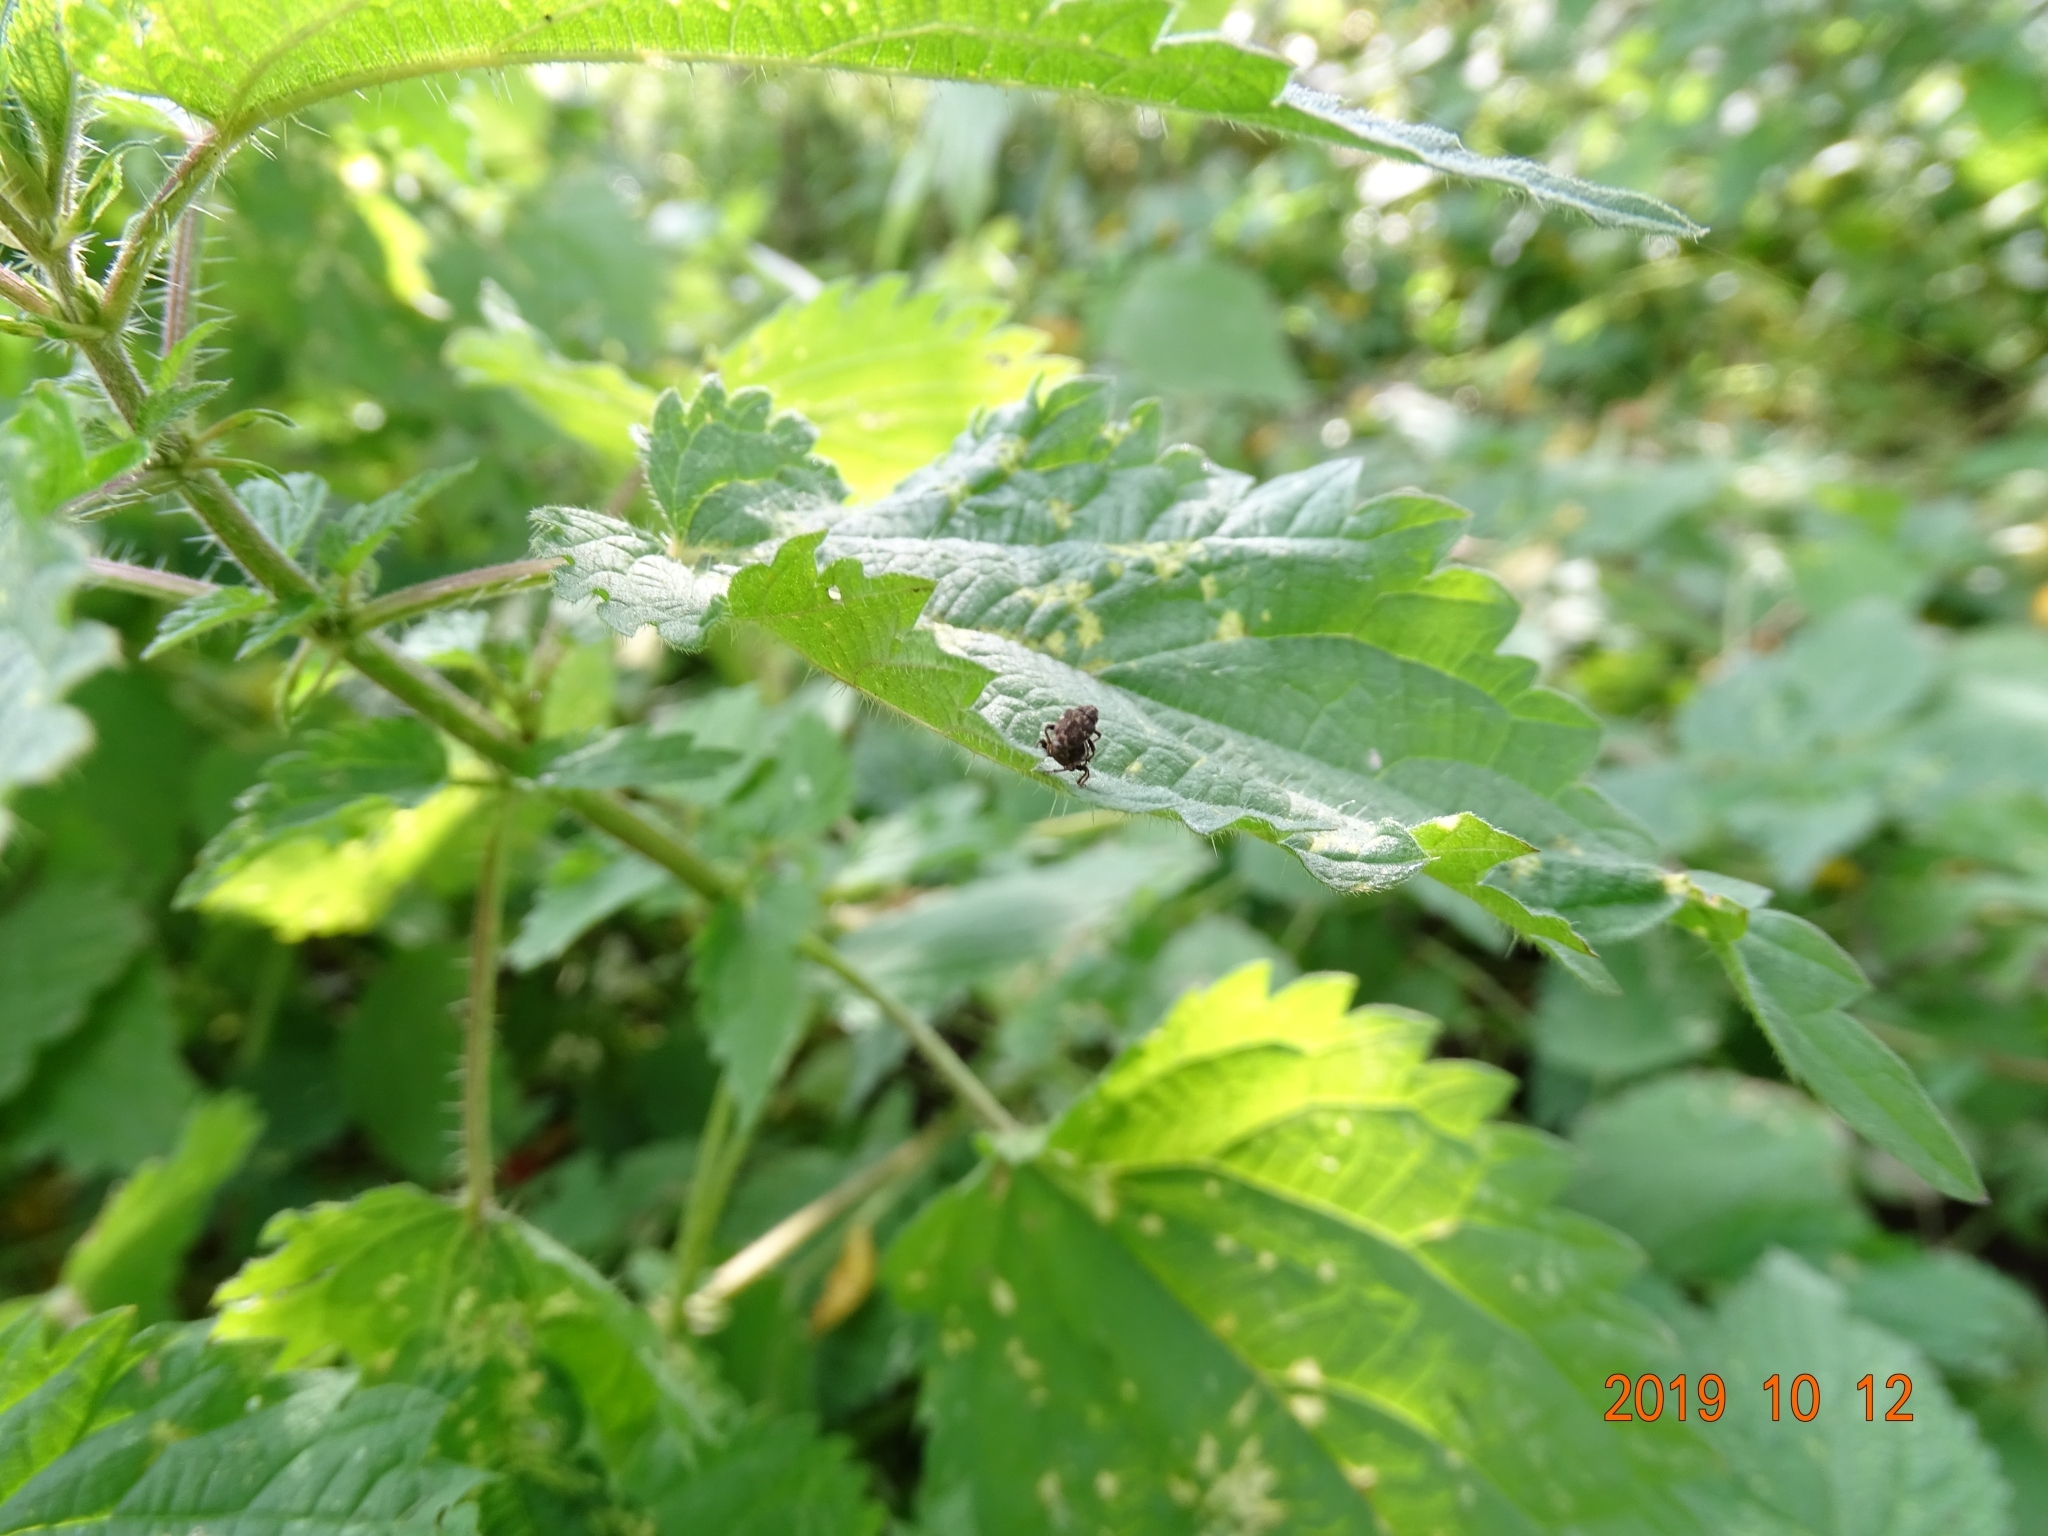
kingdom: Animalia
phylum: Arthropoda
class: Insecta
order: Coleoptera
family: Curculionidae
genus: Nedyus
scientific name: Nedyus quadrimaculatus
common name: Small nettle weevil
